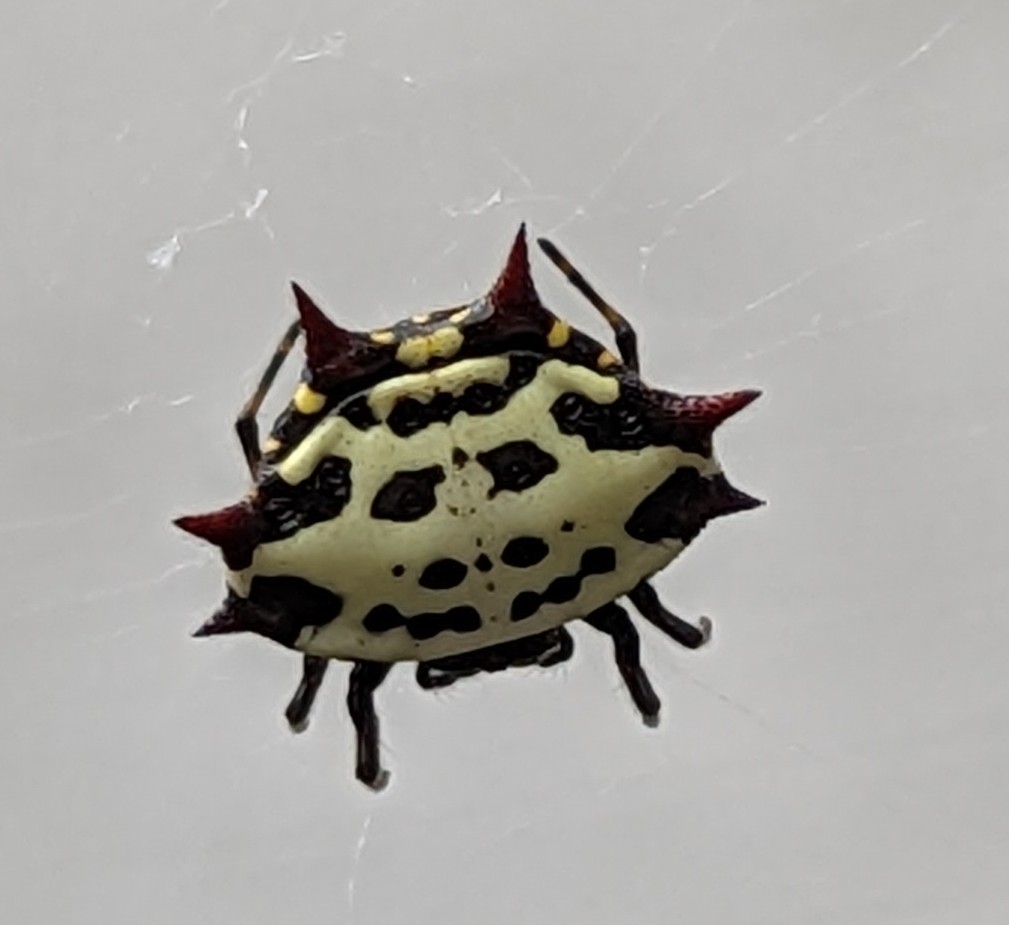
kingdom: Animalia
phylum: Arthropoda
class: Arachnida
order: Araneae
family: Araneidae
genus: Gasteracantha
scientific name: Gasteracantha cancriformis
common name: Orb weavers
